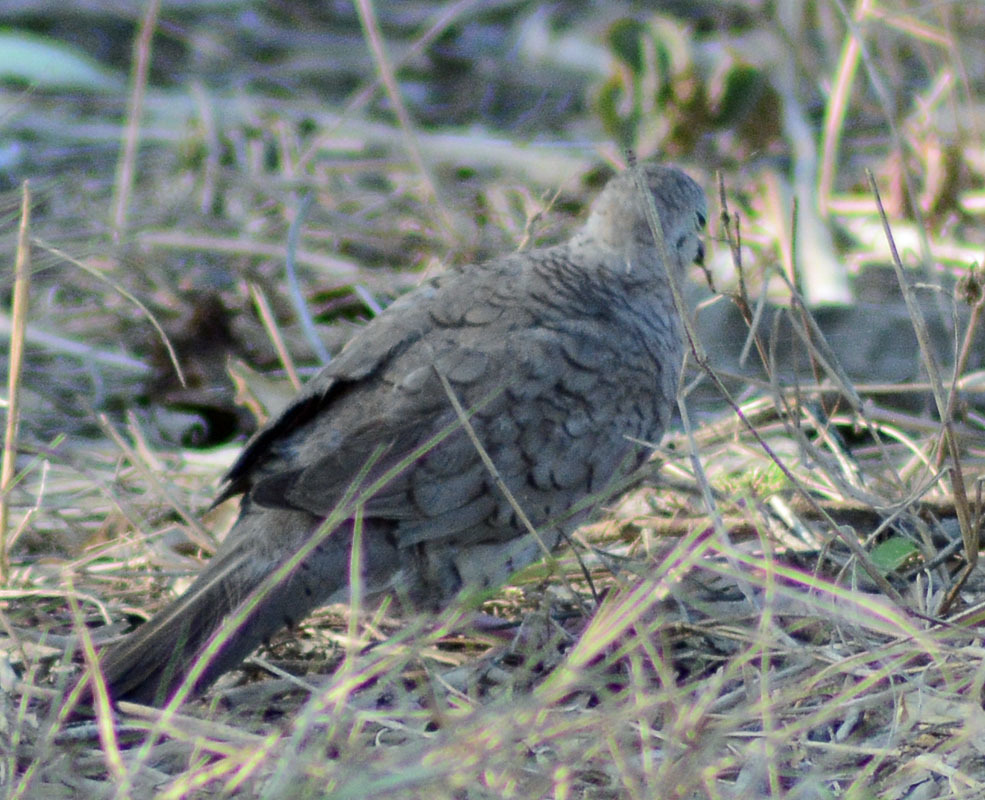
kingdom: Animalia
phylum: Chordata
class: Aves
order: Columbiformes
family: Columbidae
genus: Columbina
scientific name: Columbina inca
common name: Inca dove
